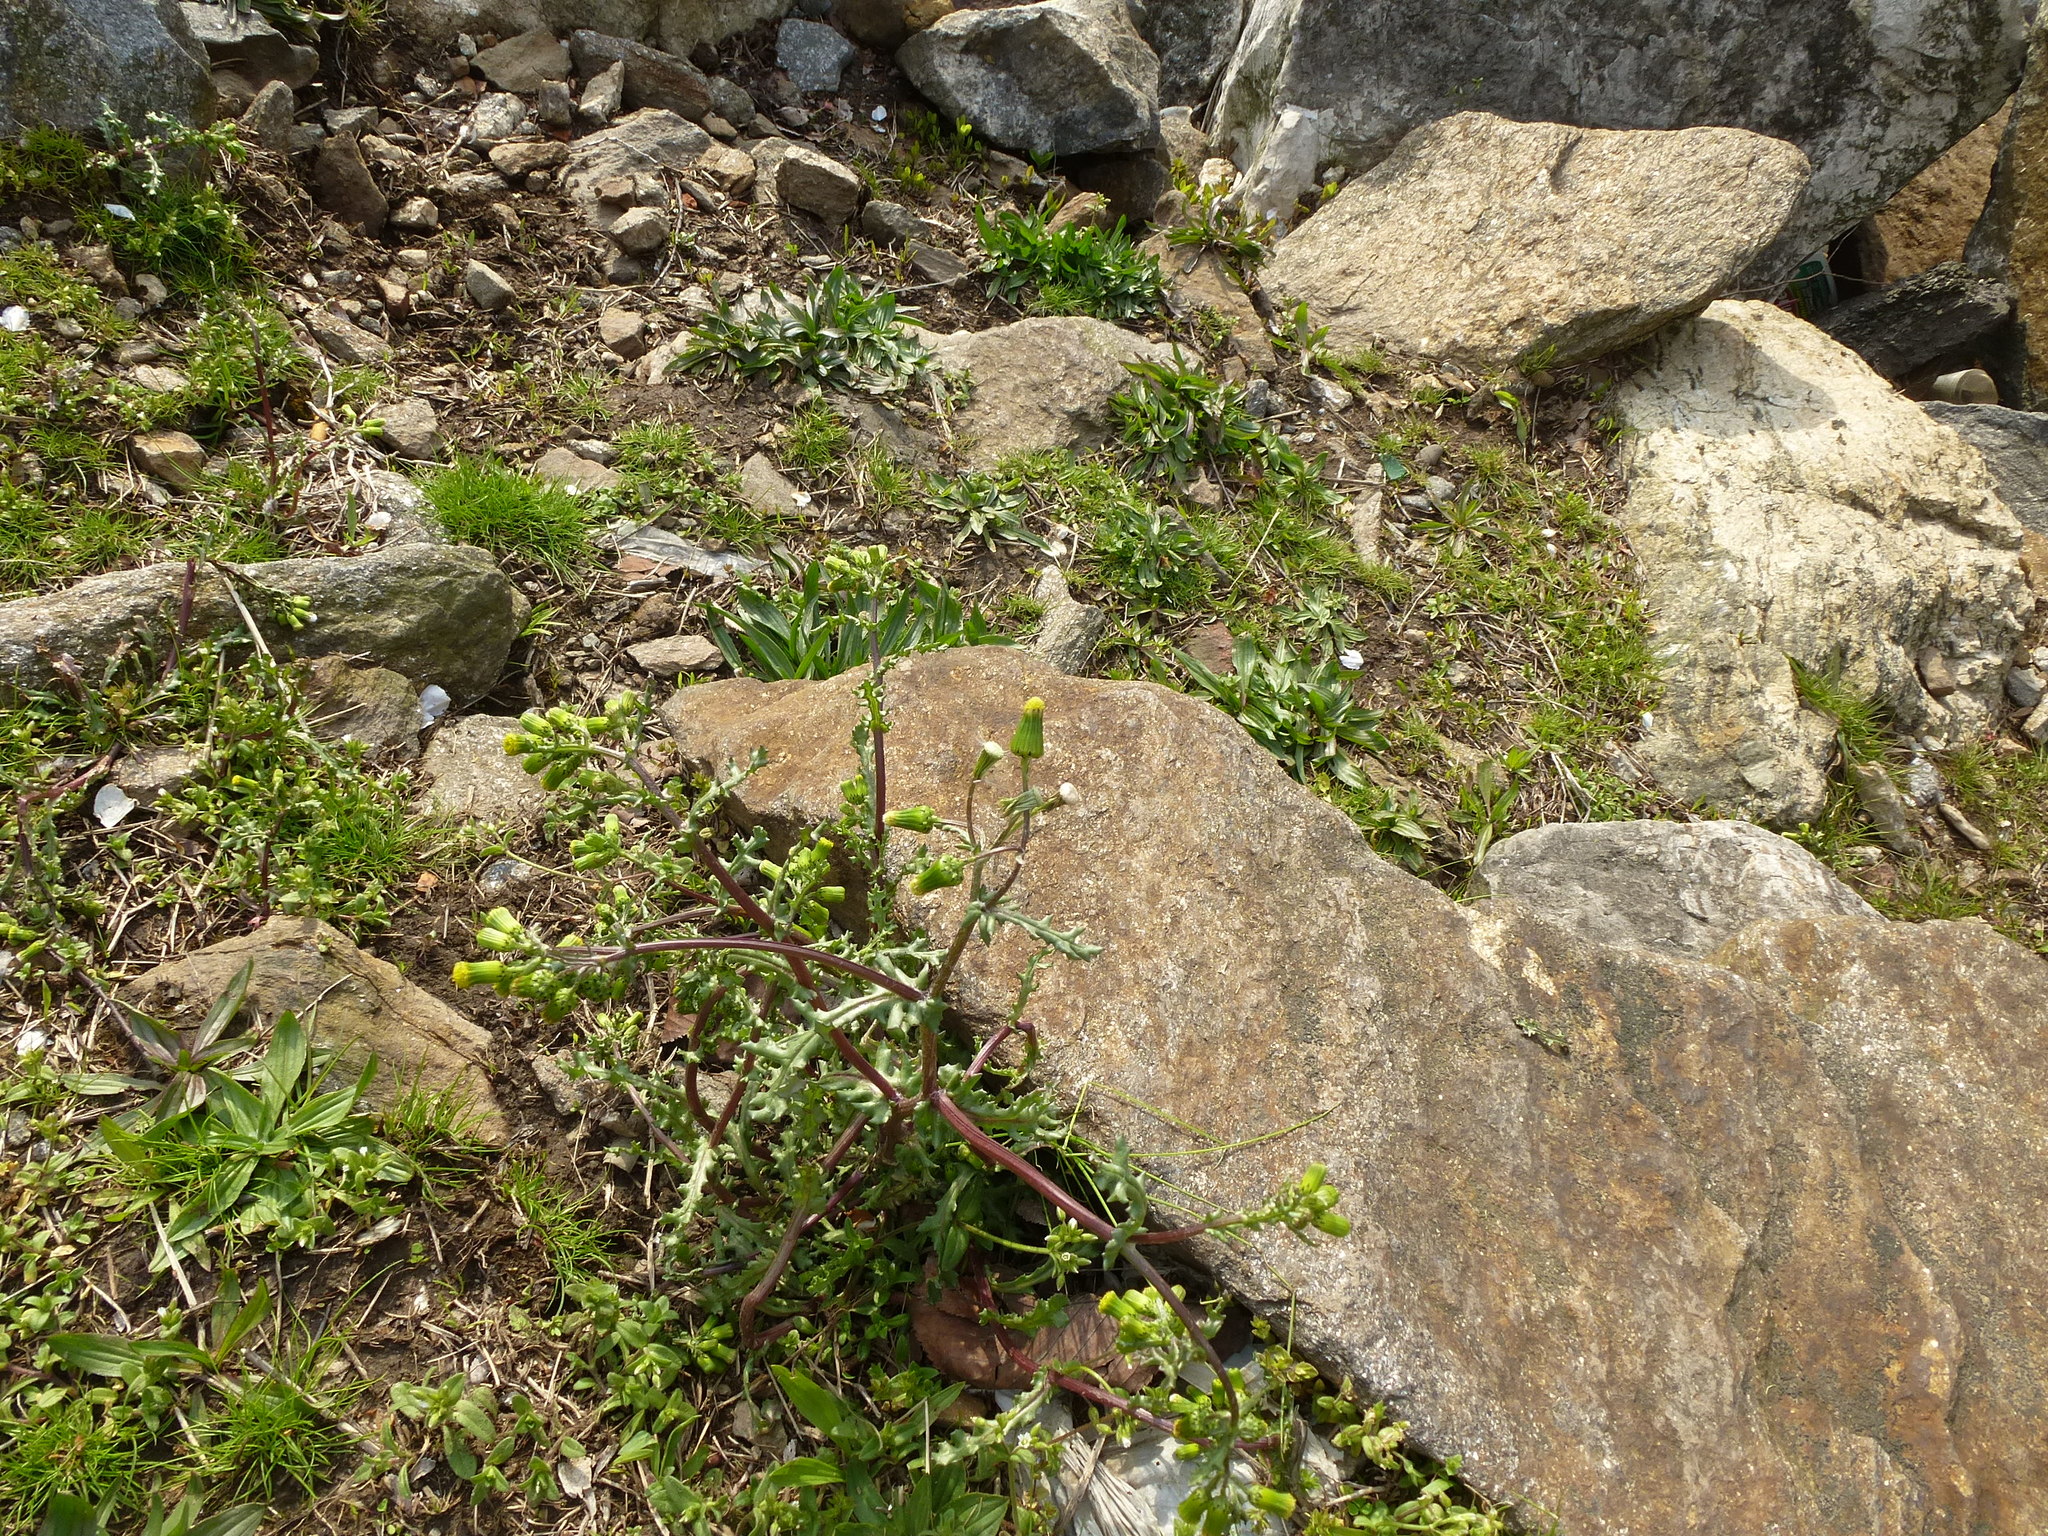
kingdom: Plantae
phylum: Tracheophyta
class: Magnoliopsida
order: Asterales
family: Asteraceae
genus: Senecio
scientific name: Senecio vulgaris
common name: Old-man-in-the-spring
